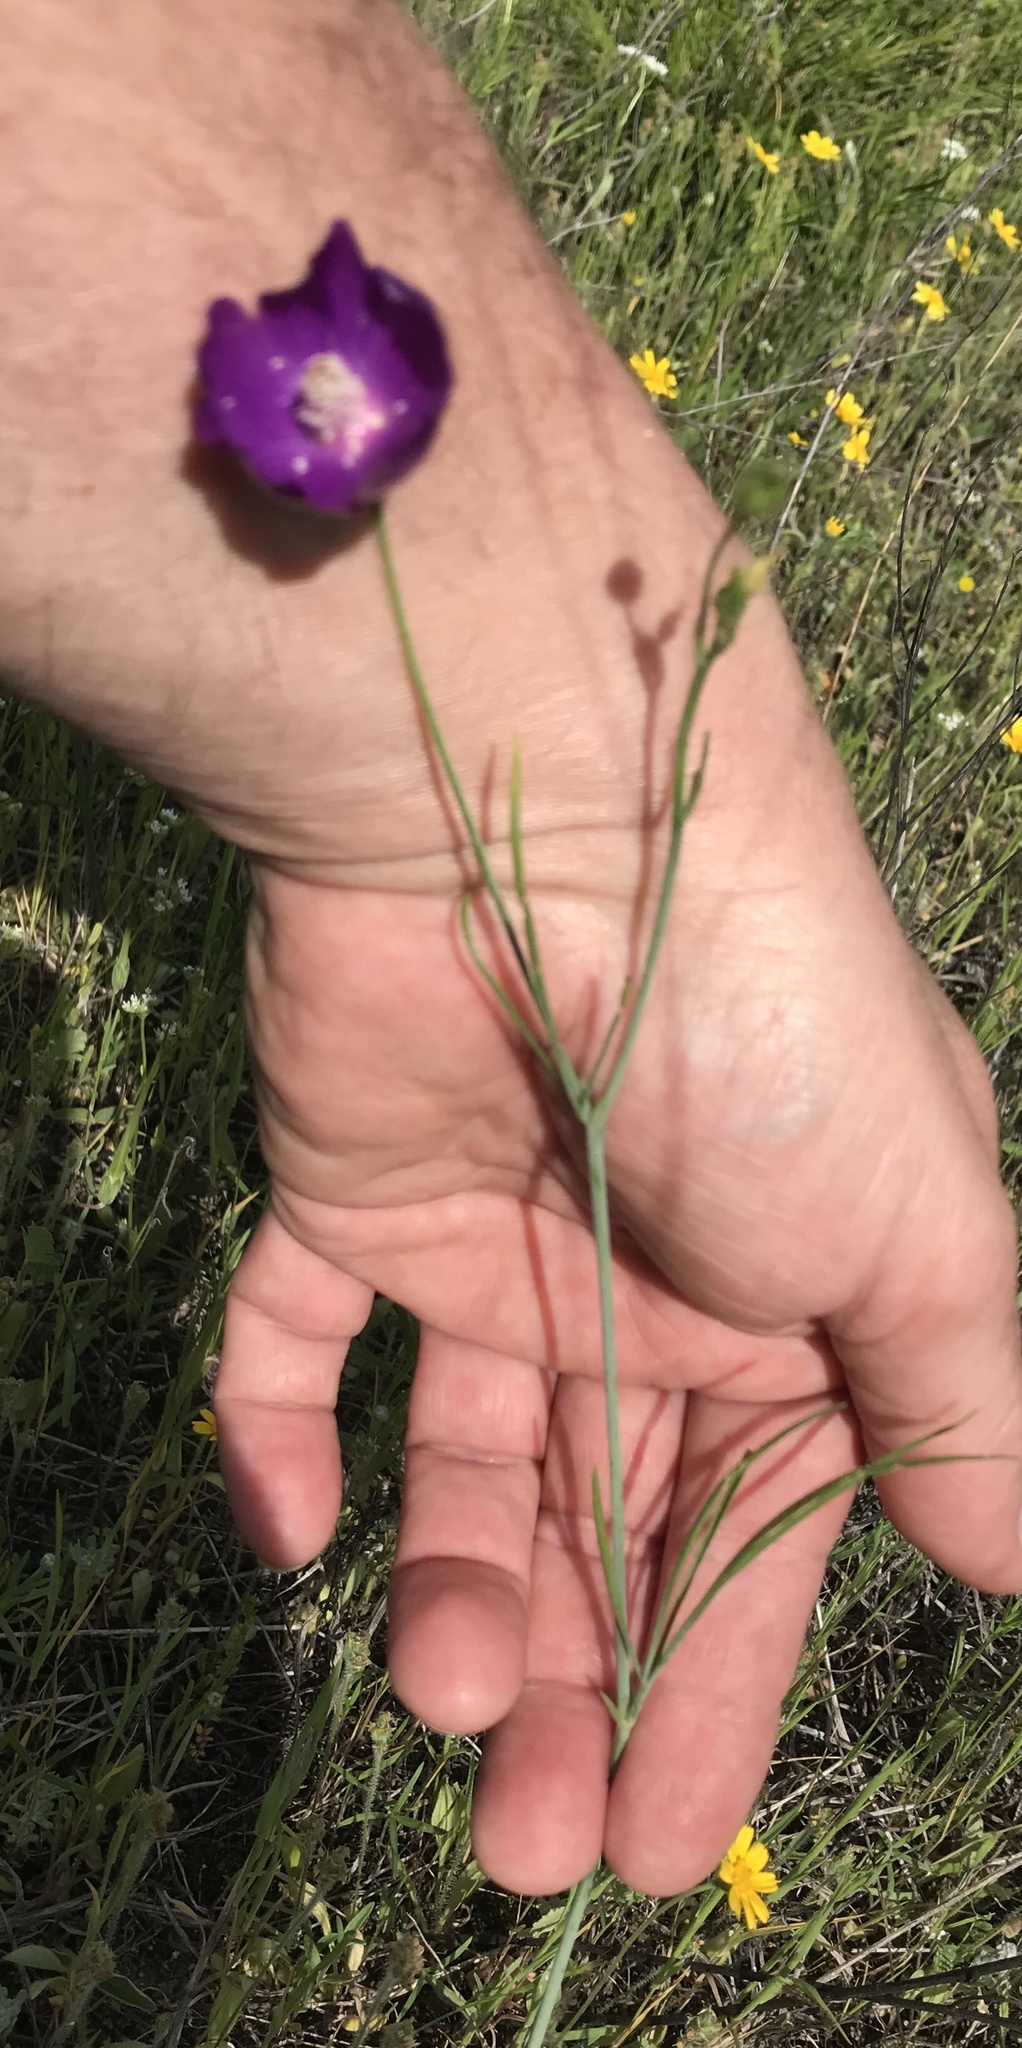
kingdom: Plantae
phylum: Tracheophyta
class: Magnoliopsida
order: Malvales
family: Malvaceae
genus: Callirhoe
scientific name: Callirhoe pedata
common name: Finger poppy-mallow
